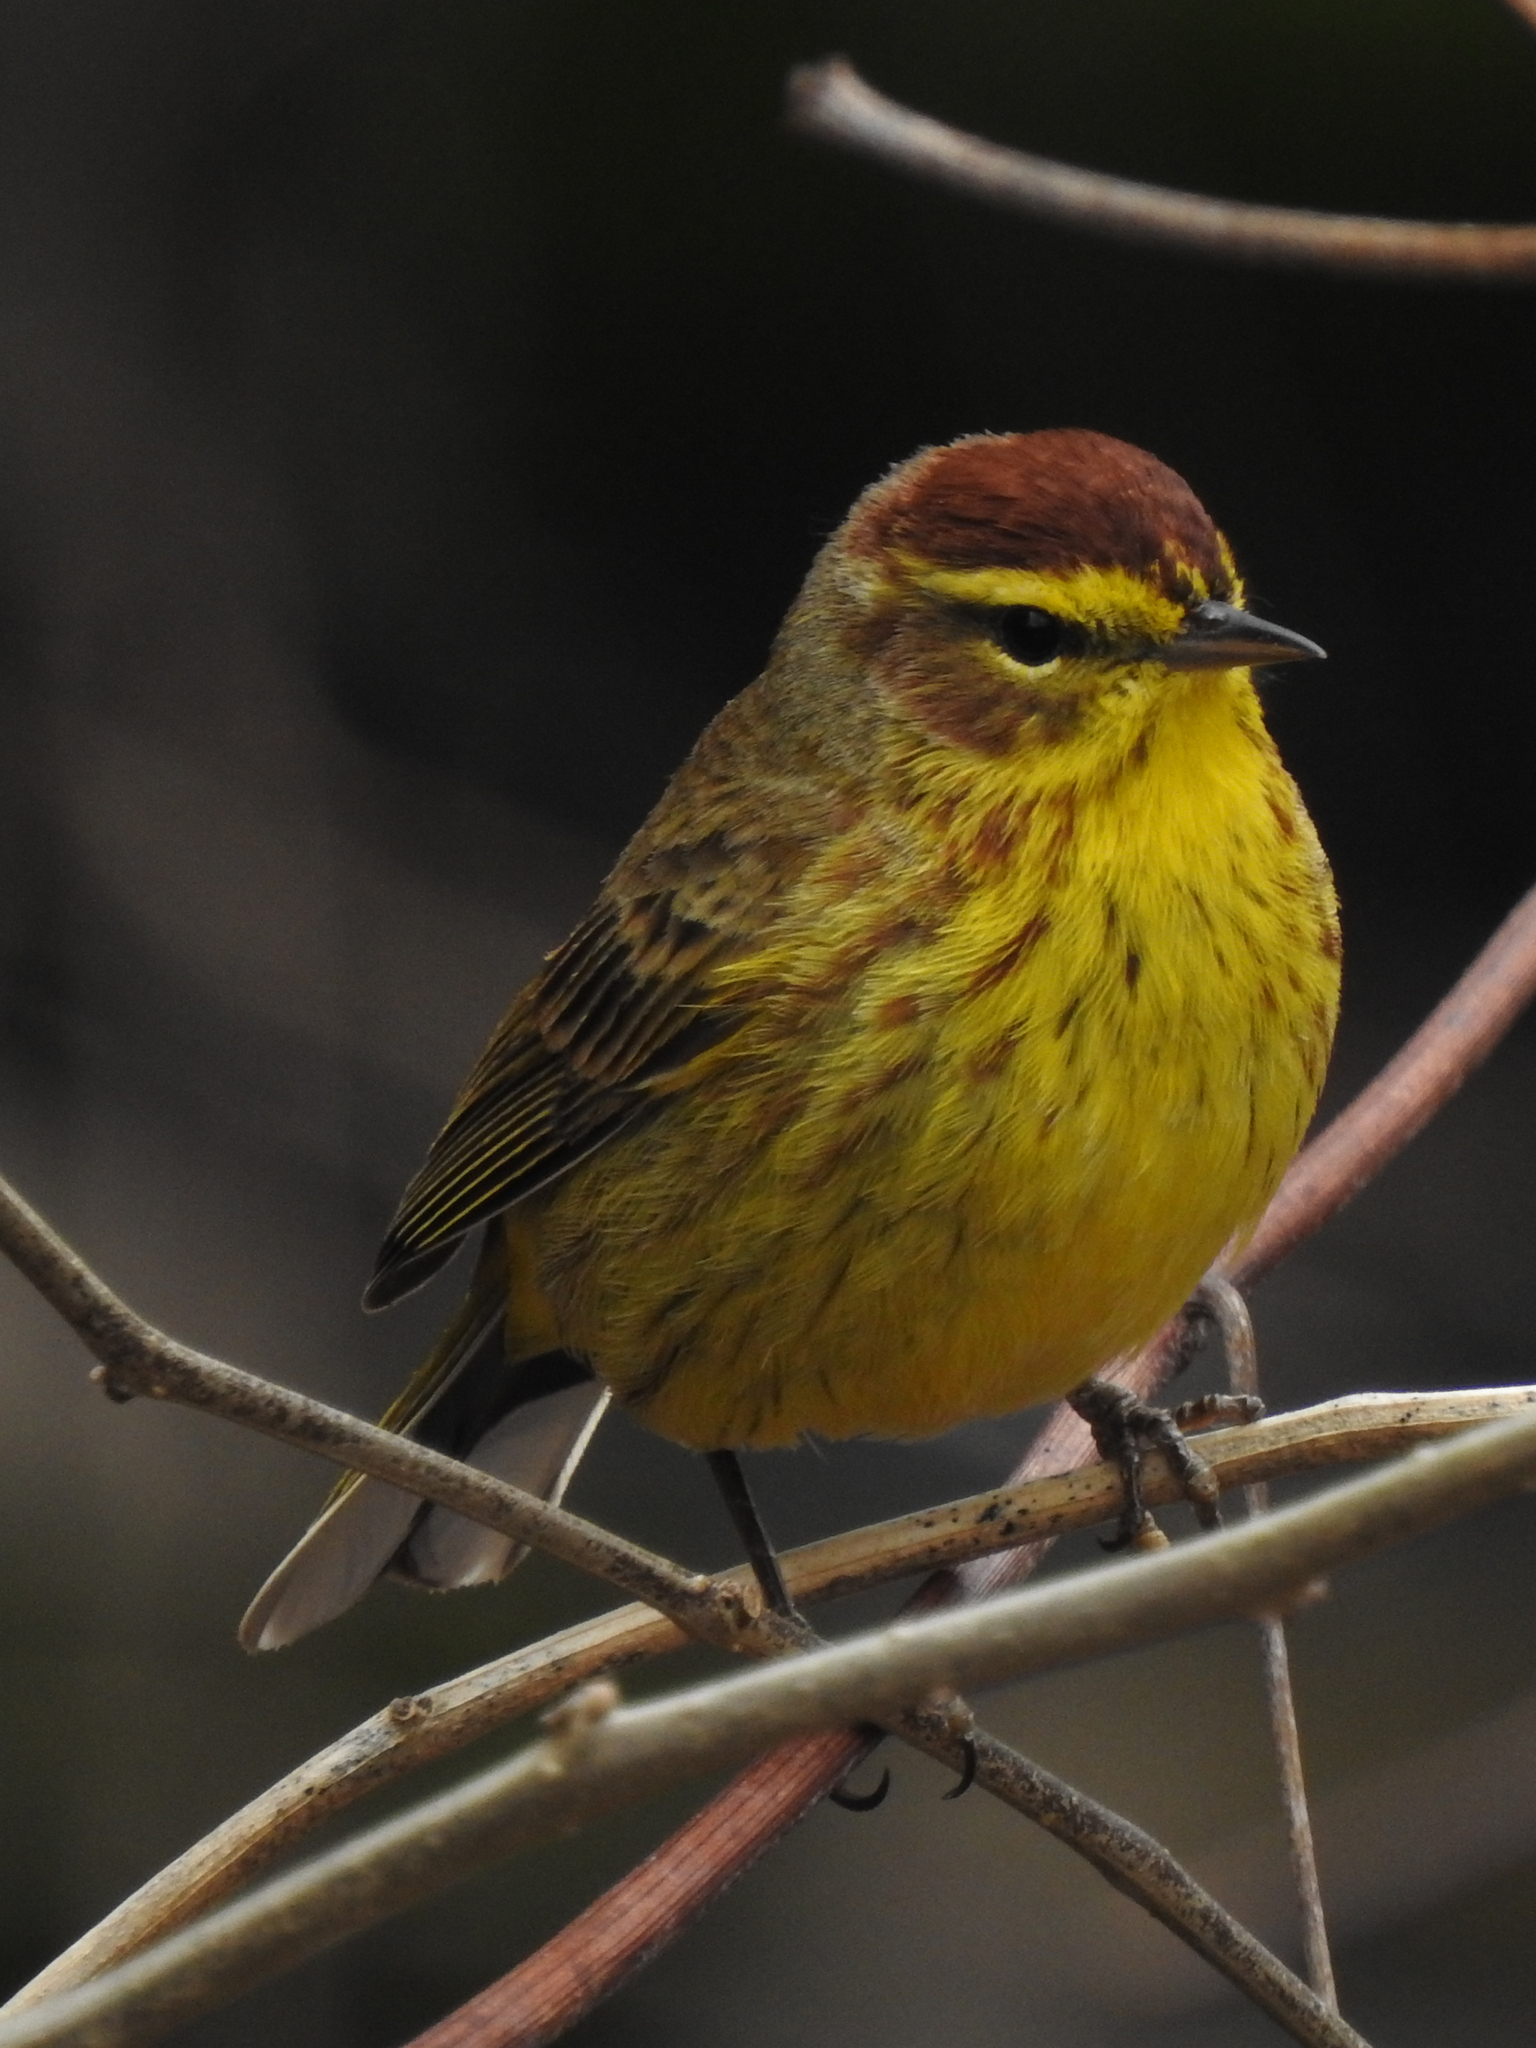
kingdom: Animalia
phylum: Chordata
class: Aves
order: Passeriformes
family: Parulidae
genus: Setophaga
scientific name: Setophaga palmarum
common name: Palm warbler
